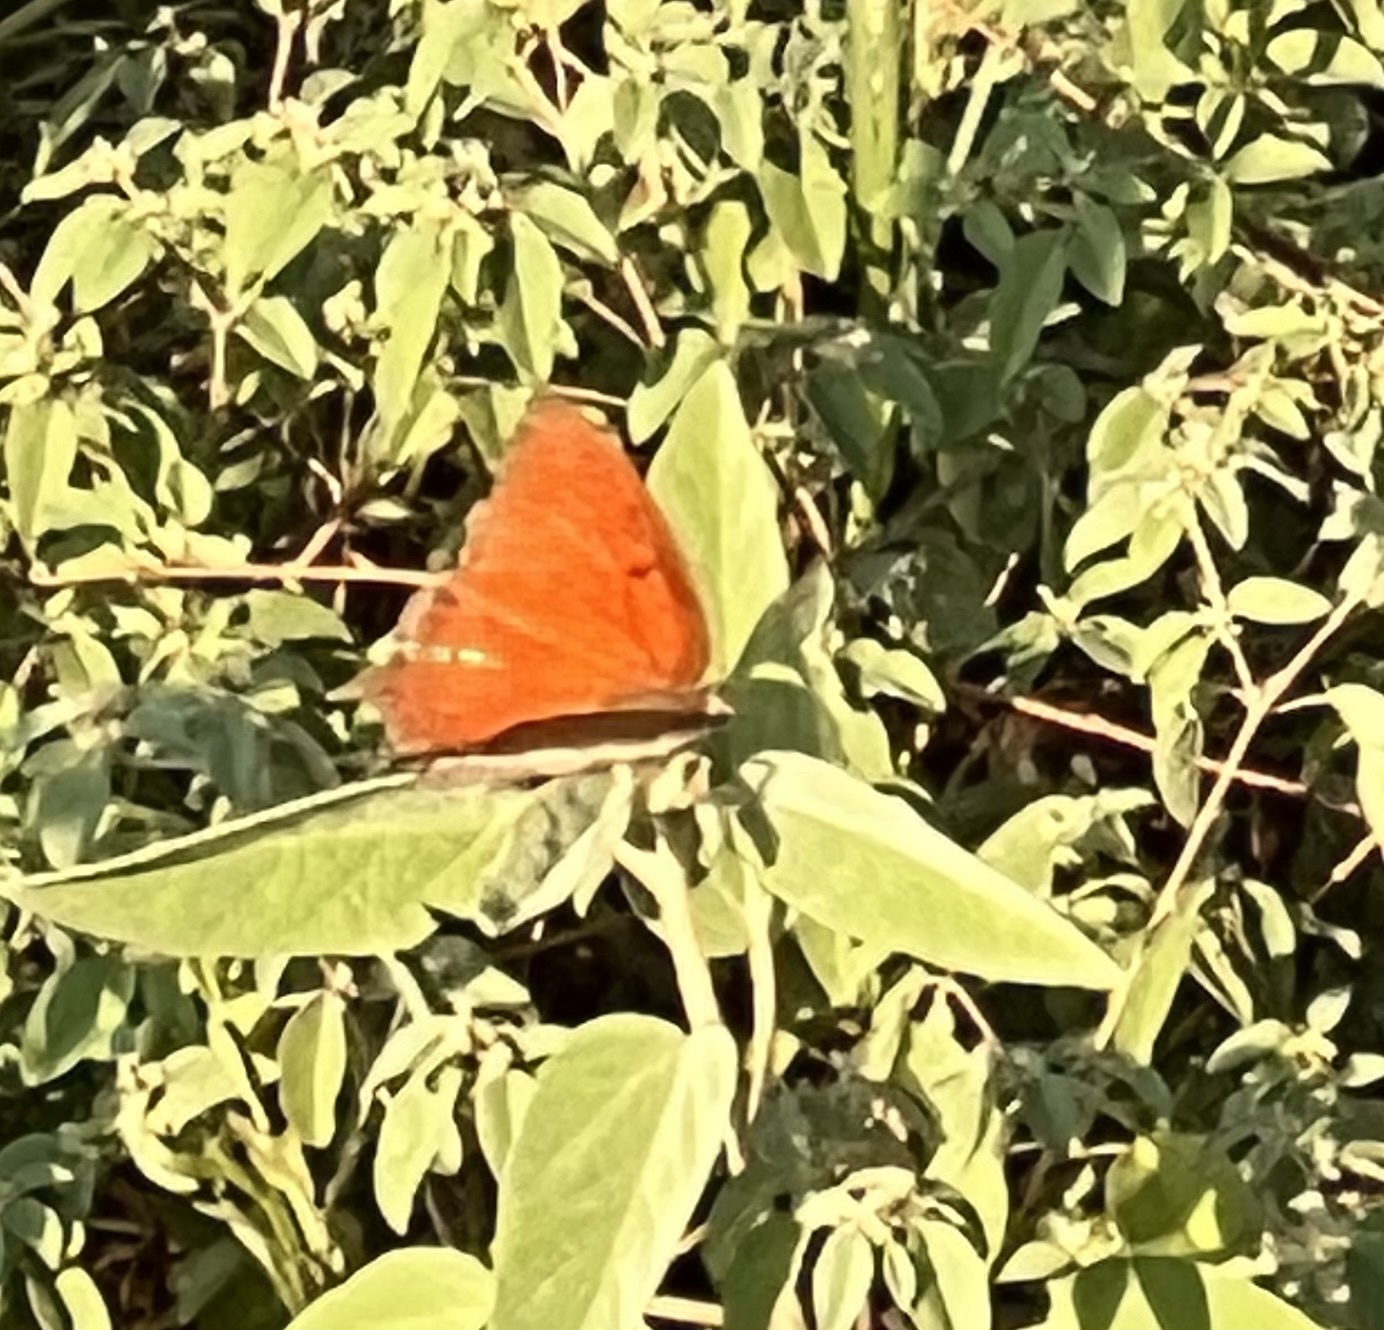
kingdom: Animalia
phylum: Arthropoda
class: Insecta
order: Lepidoptera
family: Nymphalidae
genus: Anaea
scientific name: Anaea andria
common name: Goatweed leafwing
